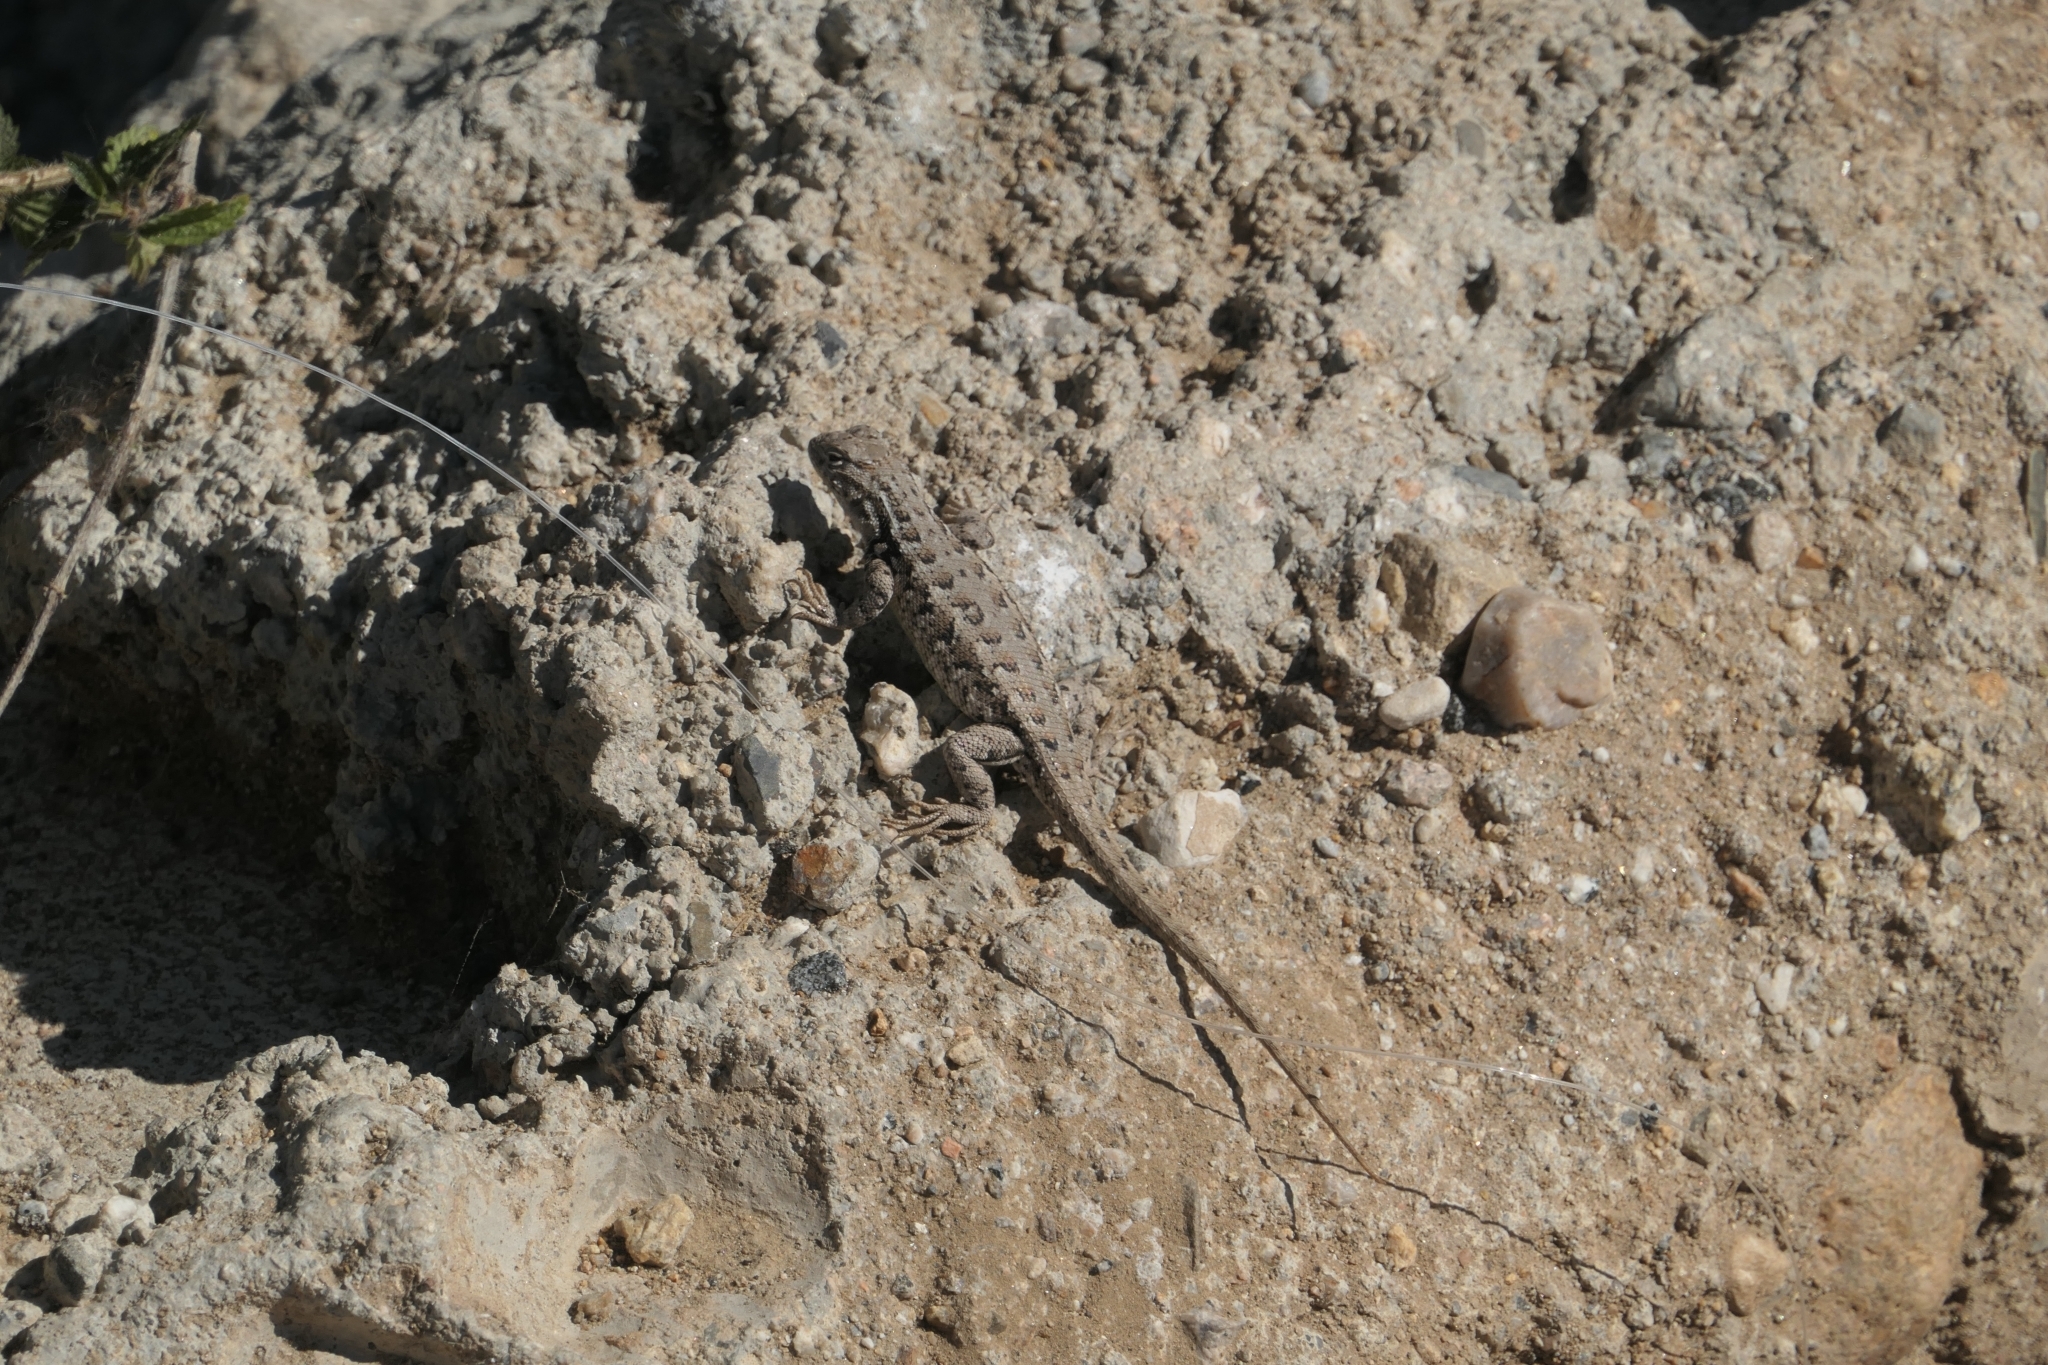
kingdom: Animalia
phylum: Chordata
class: Squamata
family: Phrynosomatidae
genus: Sceloporus
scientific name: Sceloporus graciosus
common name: Sagebrush lizard
